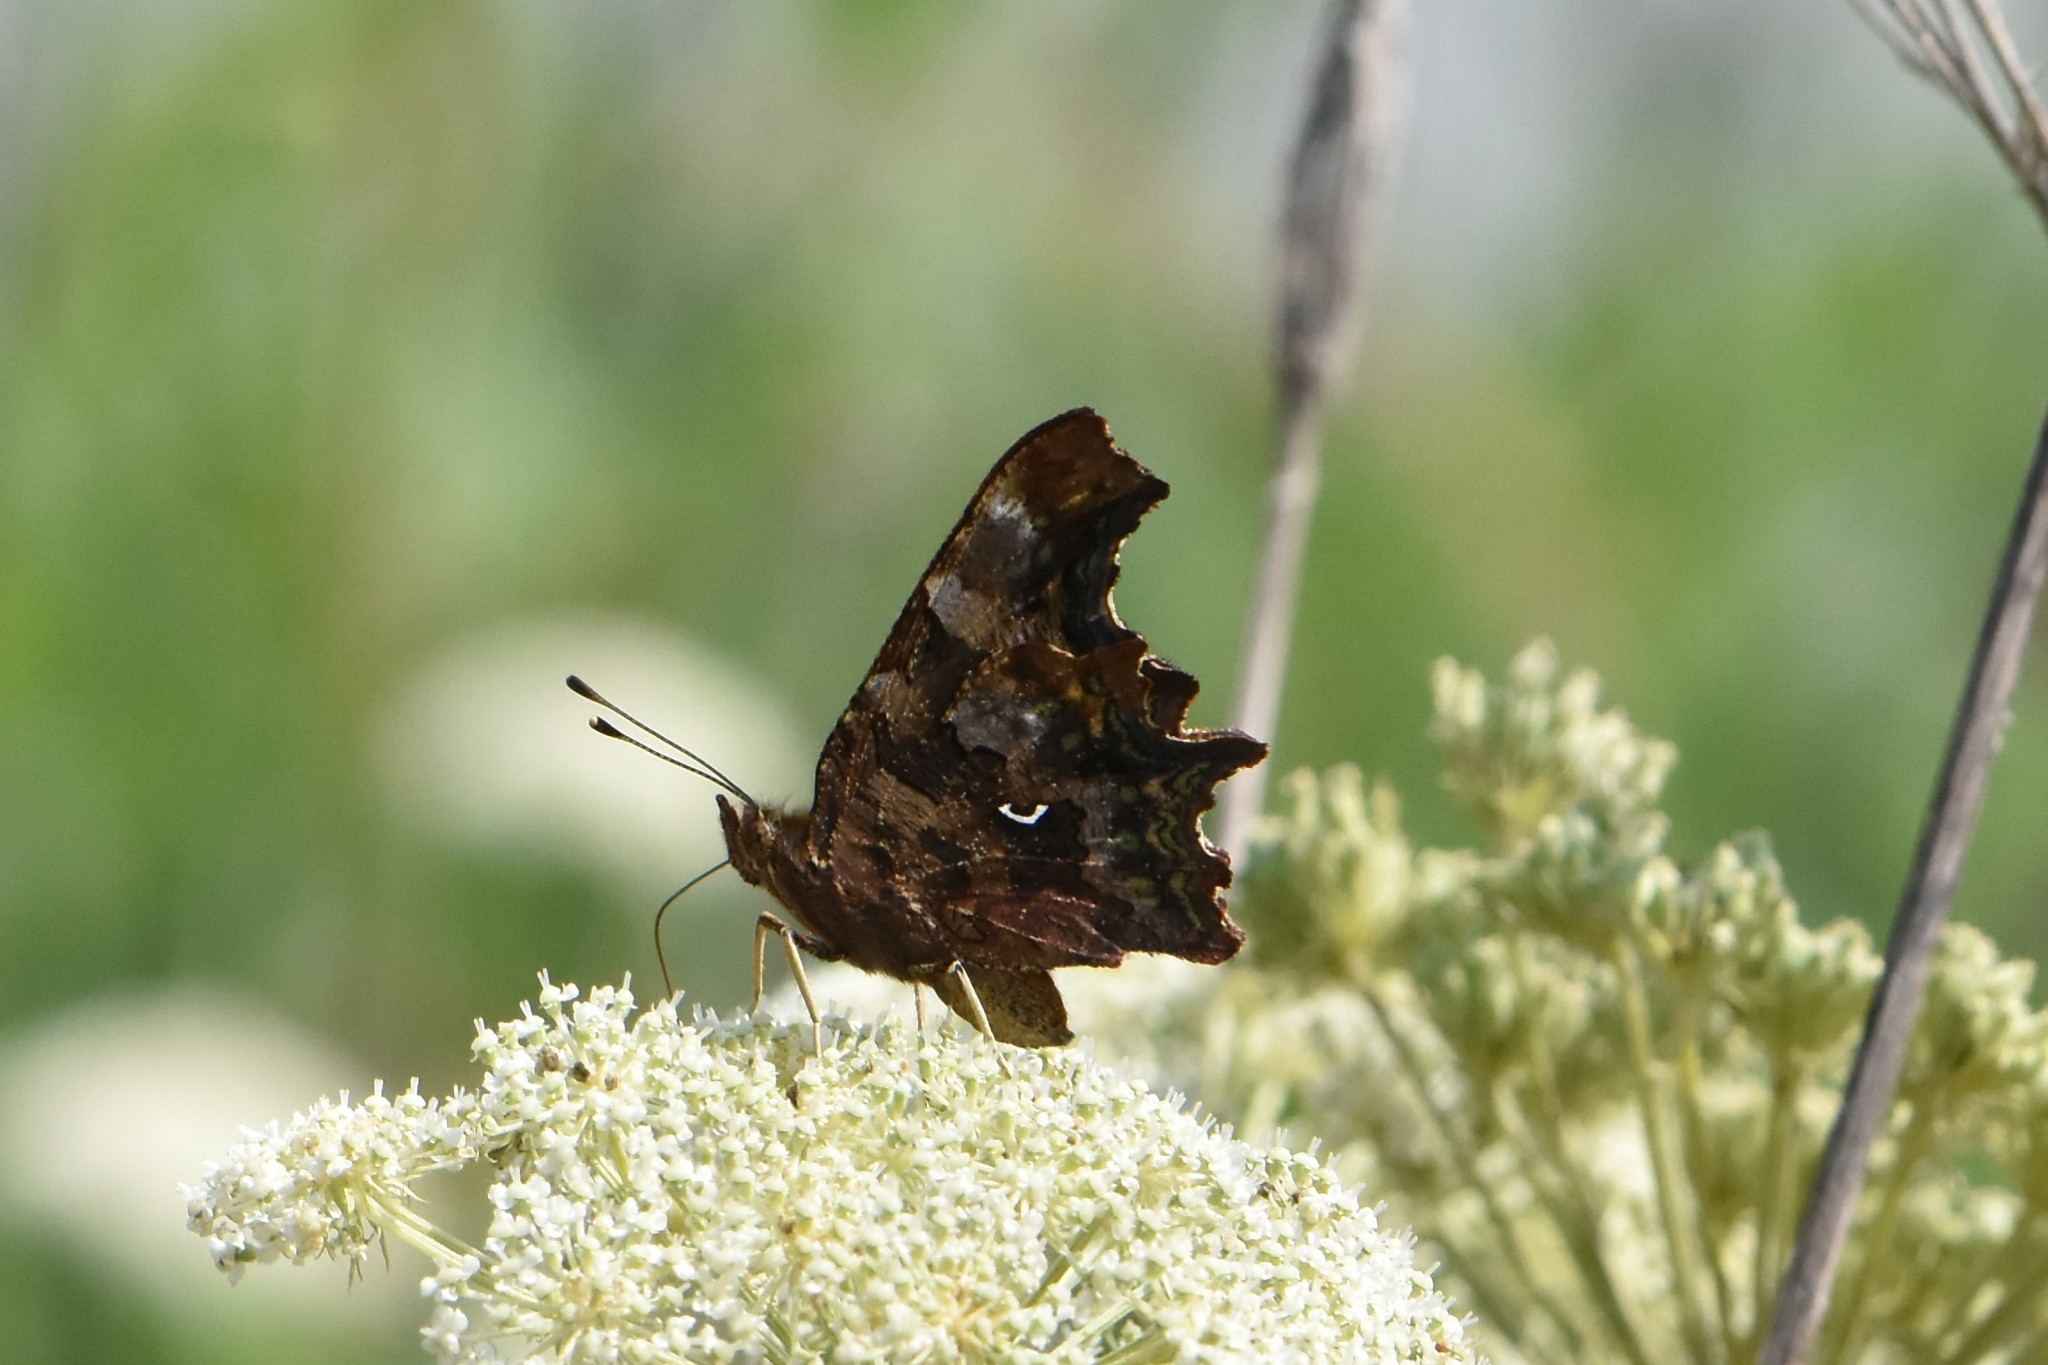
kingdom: Animalia
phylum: Arthropoda
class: Insecta
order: Lepidoptera
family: Nymphalidae
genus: Polygonia
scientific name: Polygonia c-album
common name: Comma
